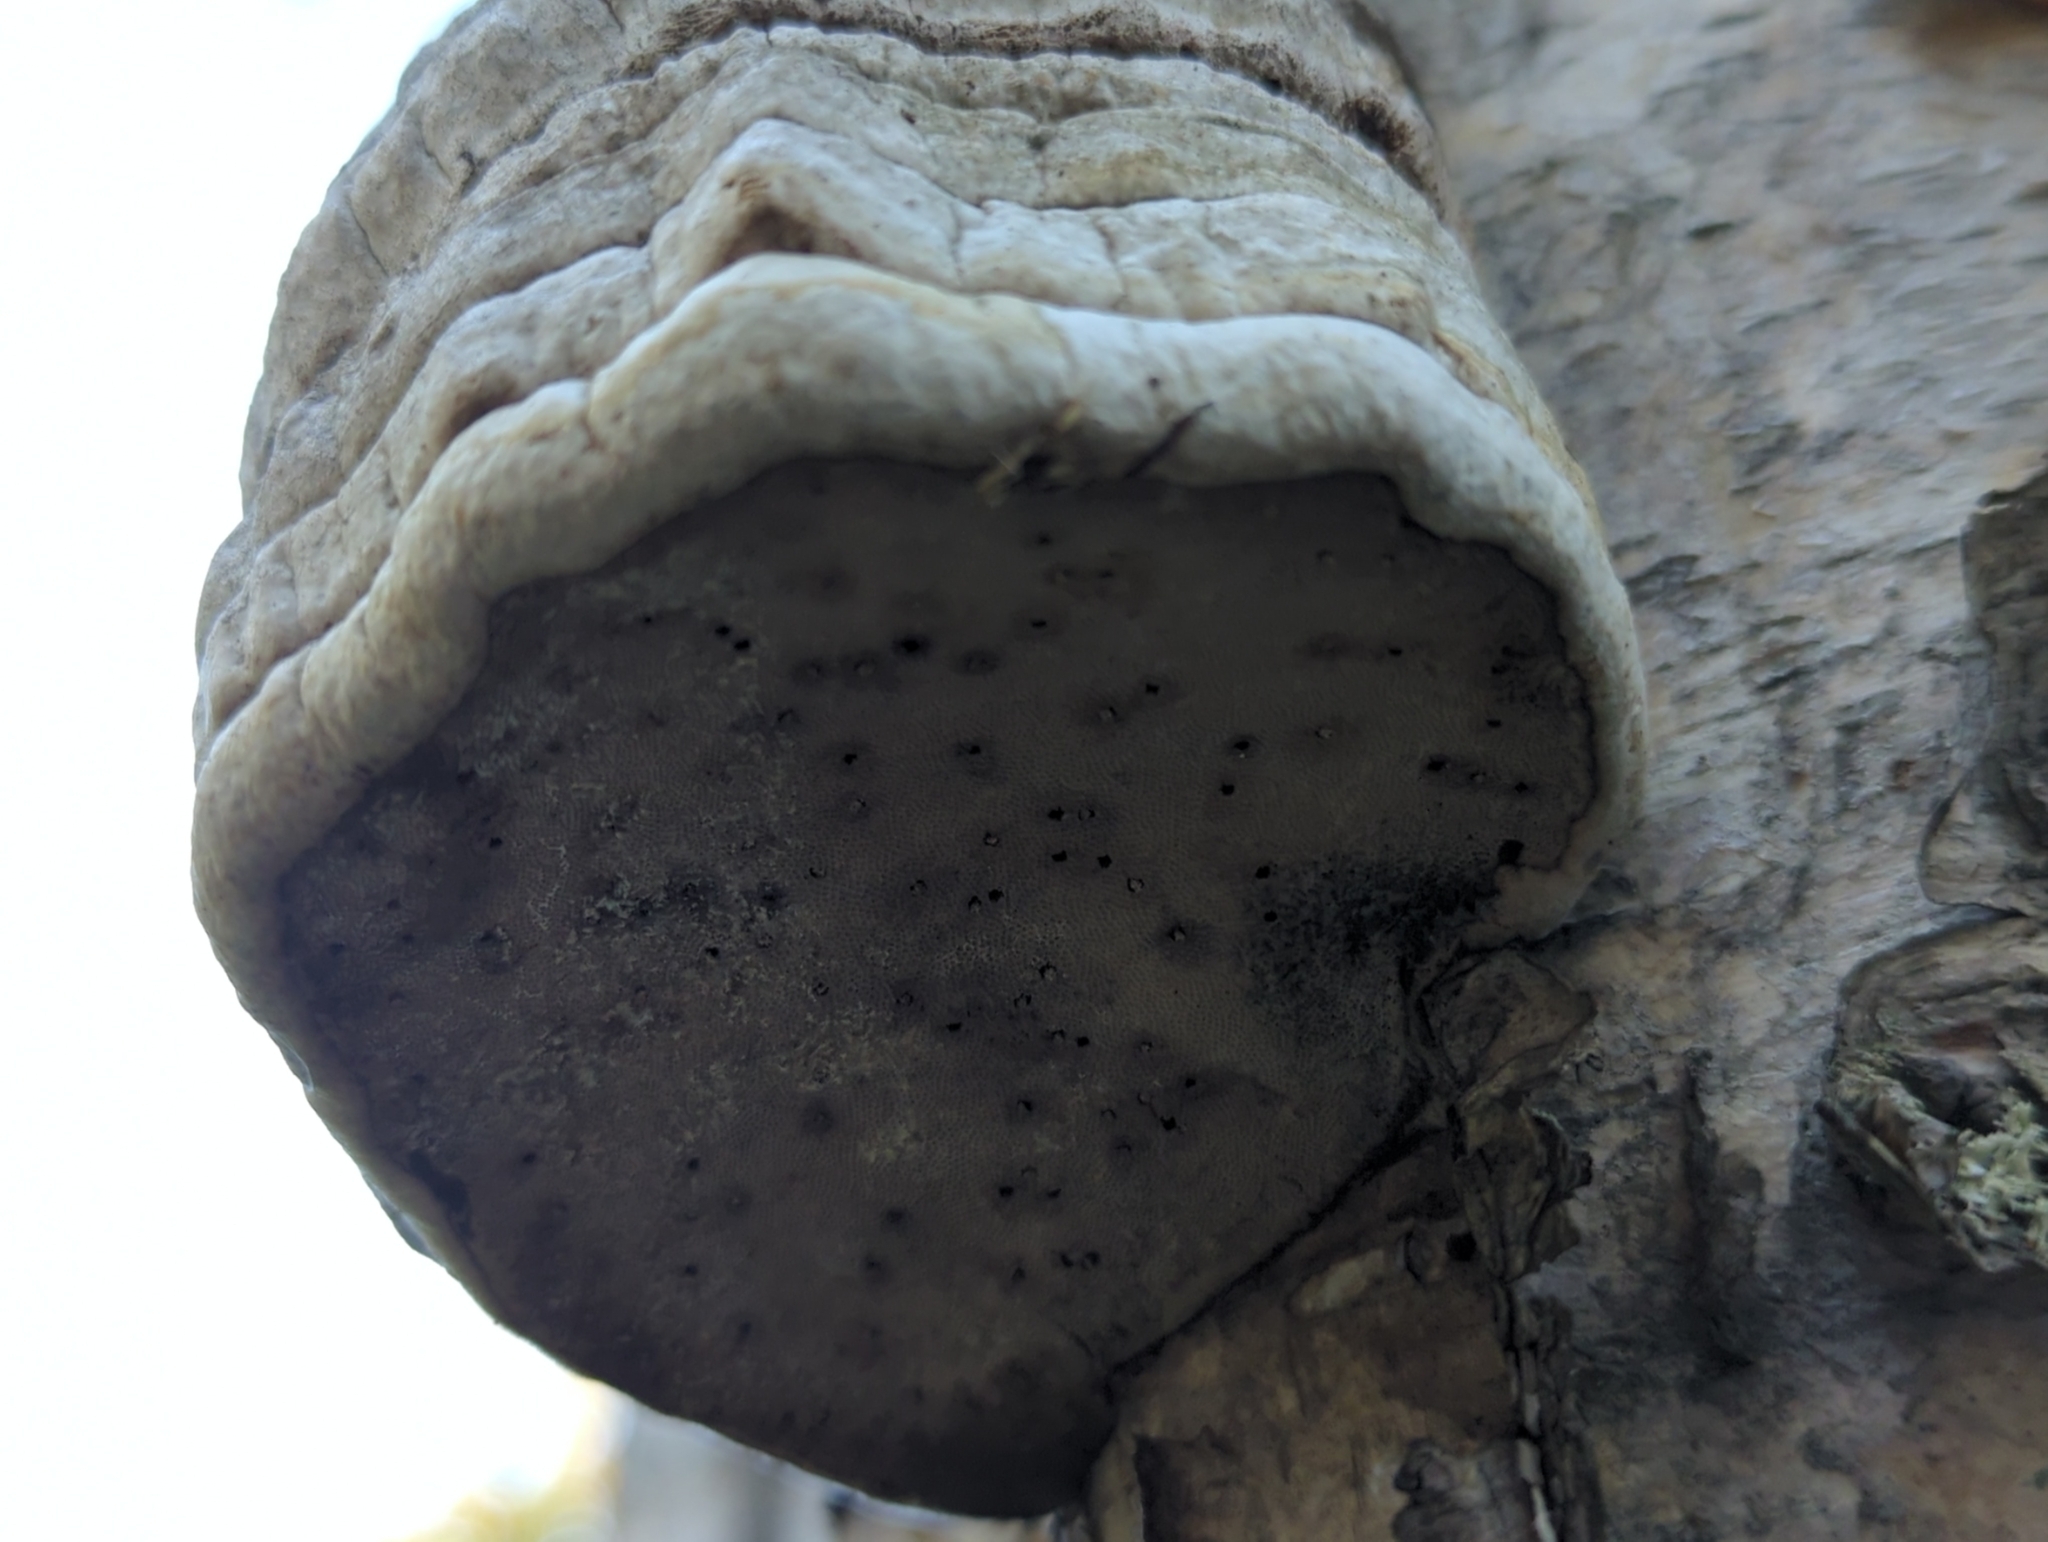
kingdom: Fungi
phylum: Basidiomycota
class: Agaricomycetes
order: Polyporales
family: Polyporaceae
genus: Fomes
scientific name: Fomes fomentarius
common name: Hoof fungus
